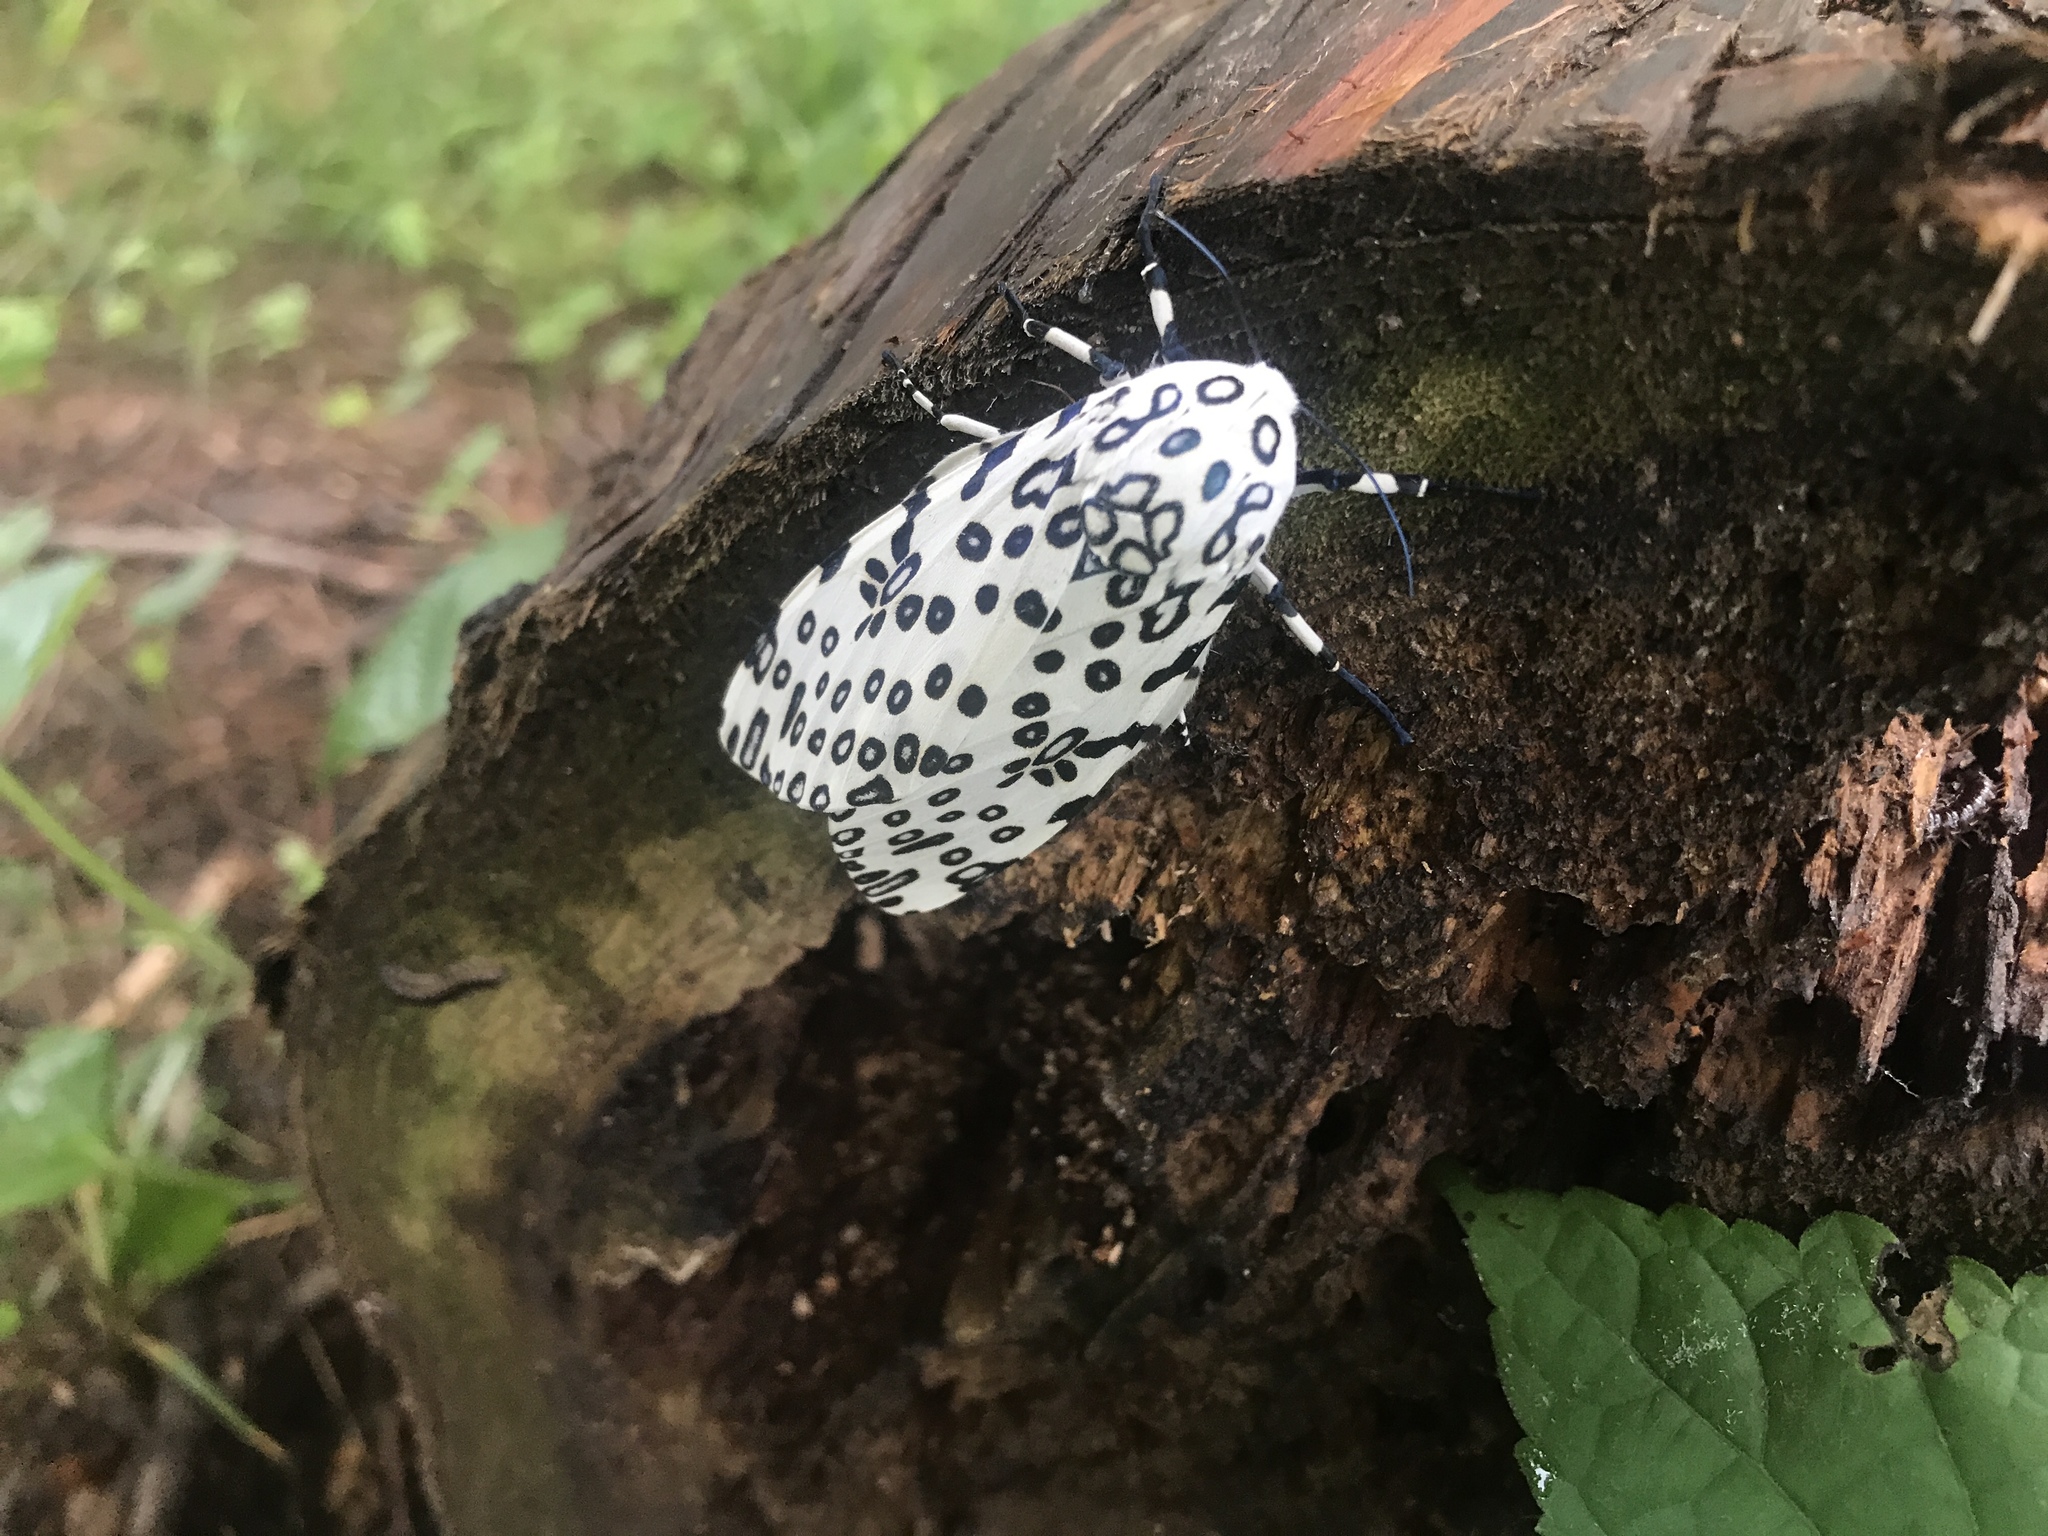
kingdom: Animalia
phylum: Arthropoda
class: Insecta
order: Lepidoptera
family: Erebidae
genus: Hypercompe
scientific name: Hypercompe scribonia
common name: Giant leopard moth
